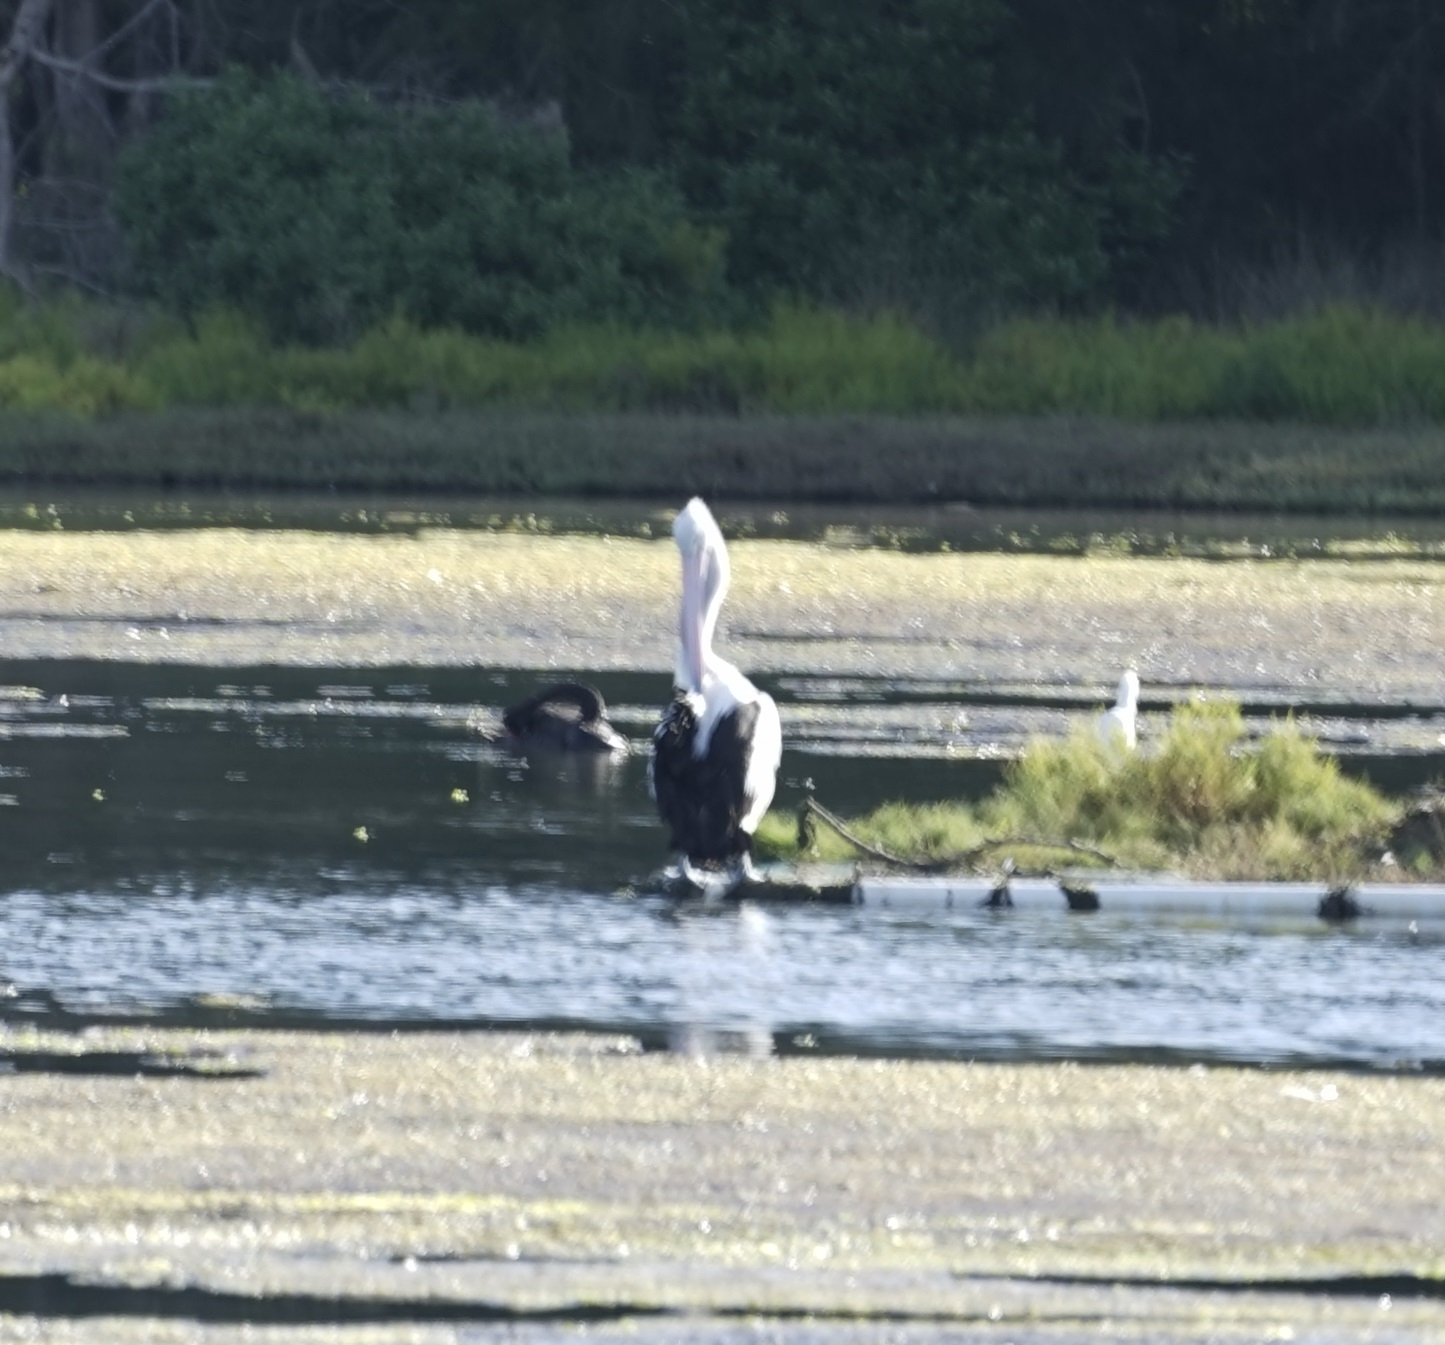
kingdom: Animalia
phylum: Chordata
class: Aves
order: Pelecaniformes
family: Pelecanidae
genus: Pelecanus
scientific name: Pelecanus conspicillatus
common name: Australian pelican
